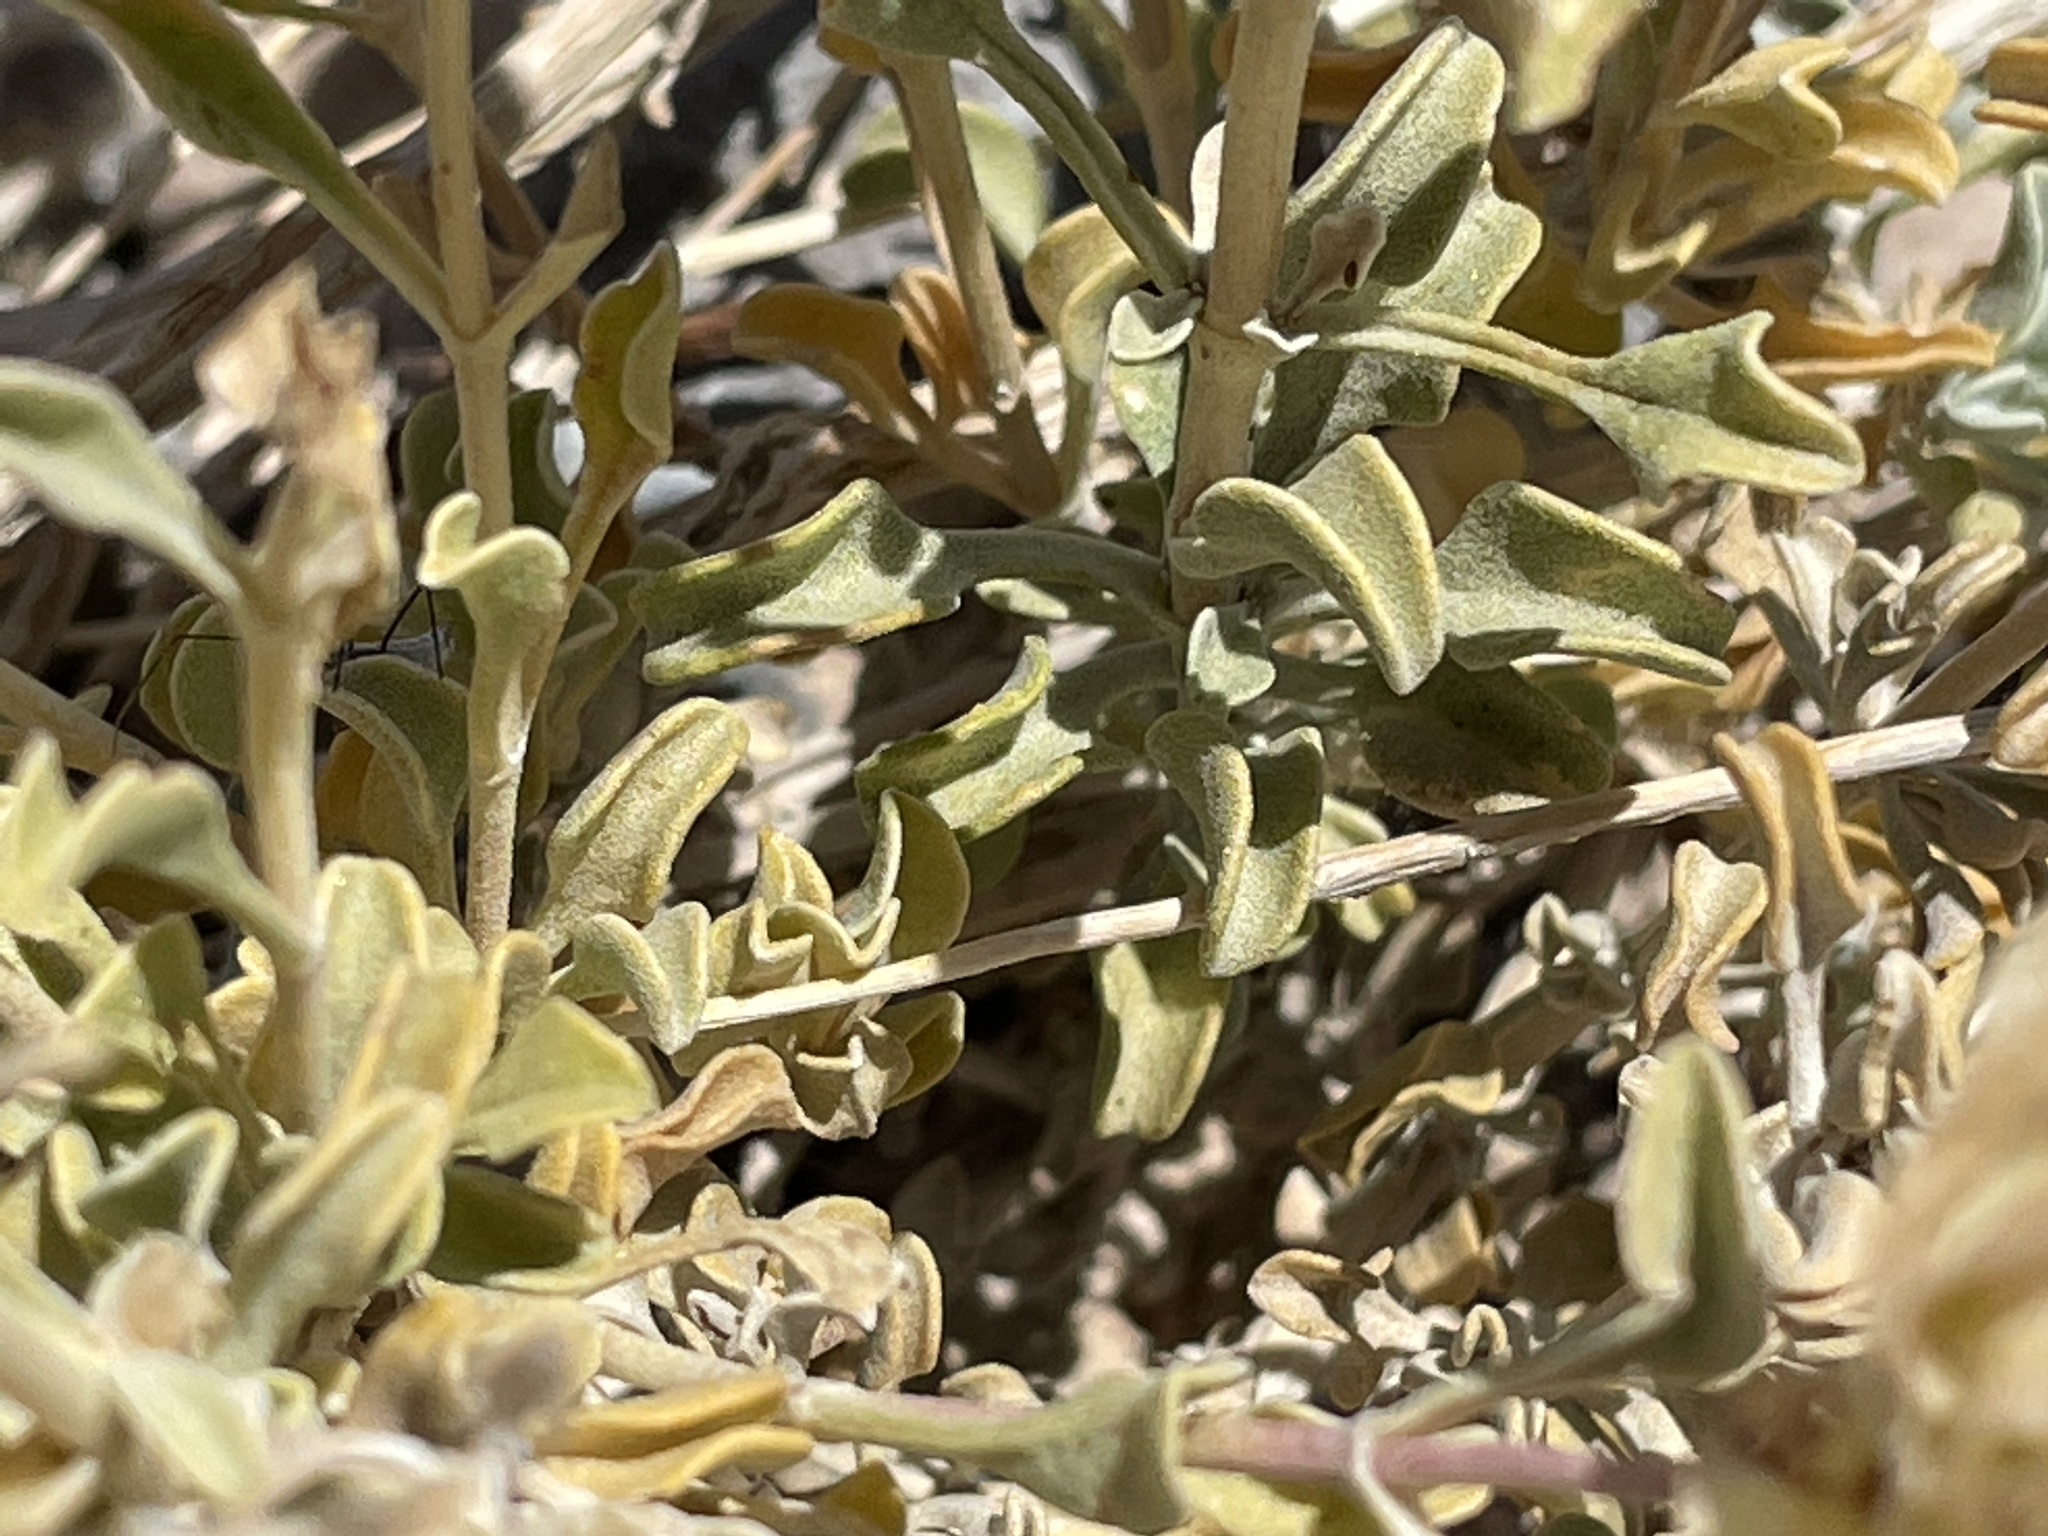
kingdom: Plantae
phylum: Tracheophyta
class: Magnoliopsida
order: Lamiales
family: Lamiaceae
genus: Salvia
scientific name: Salvia dorrii
